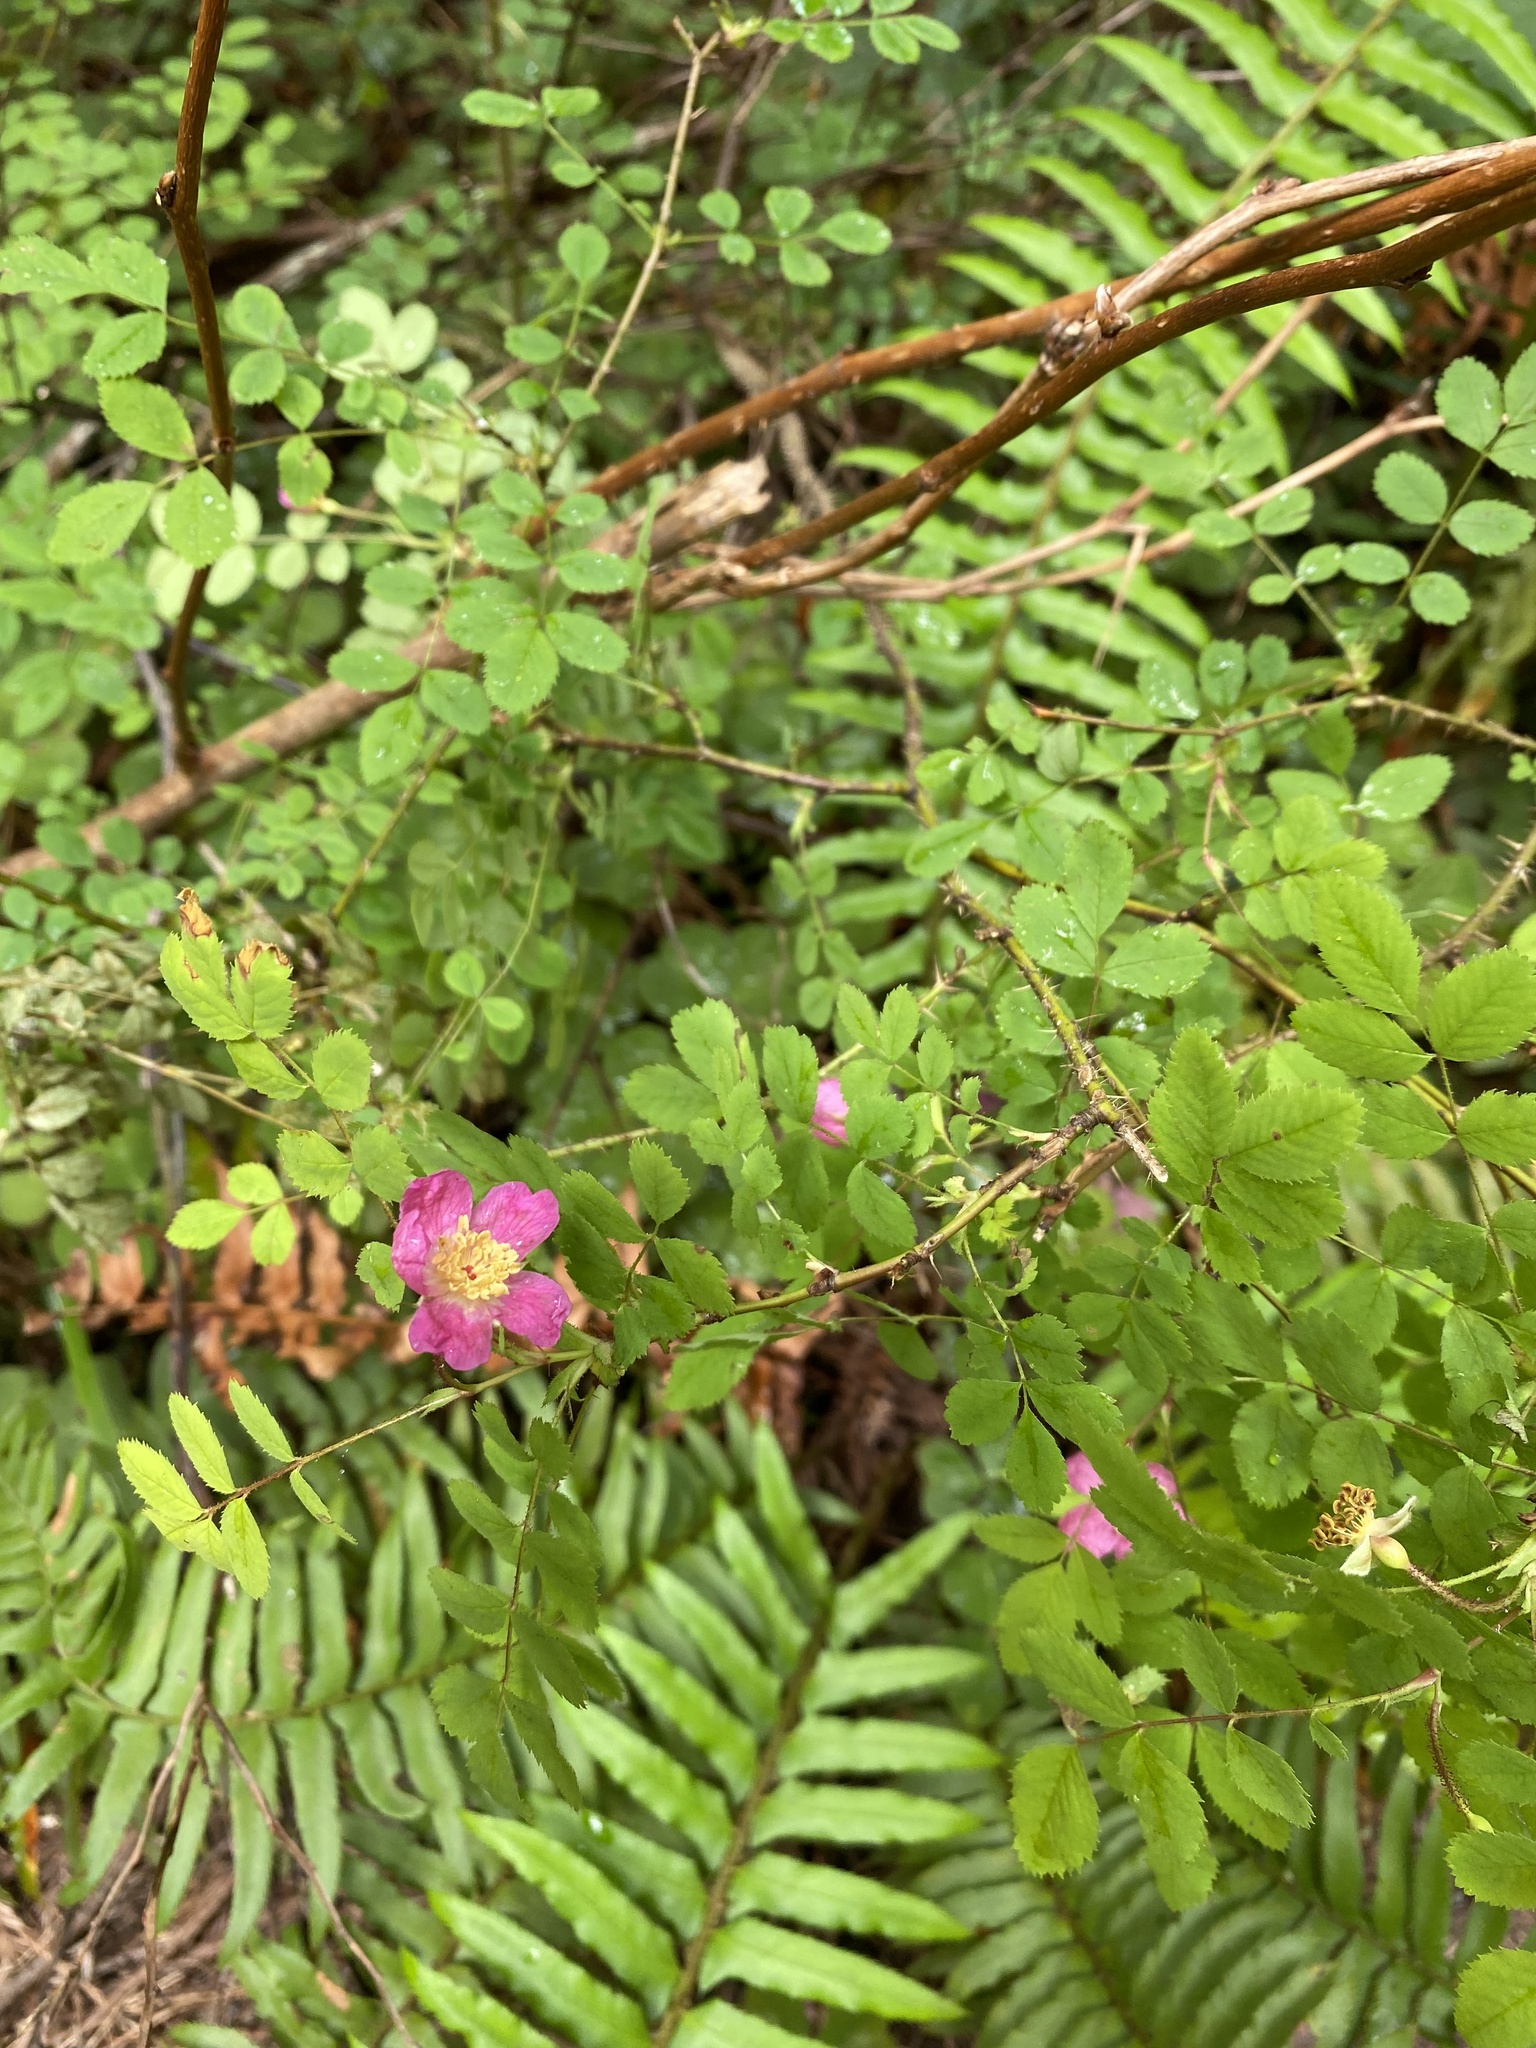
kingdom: Plantae
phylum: Tracheophyta
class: Magnoliopsida
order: Rosales
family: Rosaceae
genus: Rosa
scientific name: Rosa gymnocarpa
